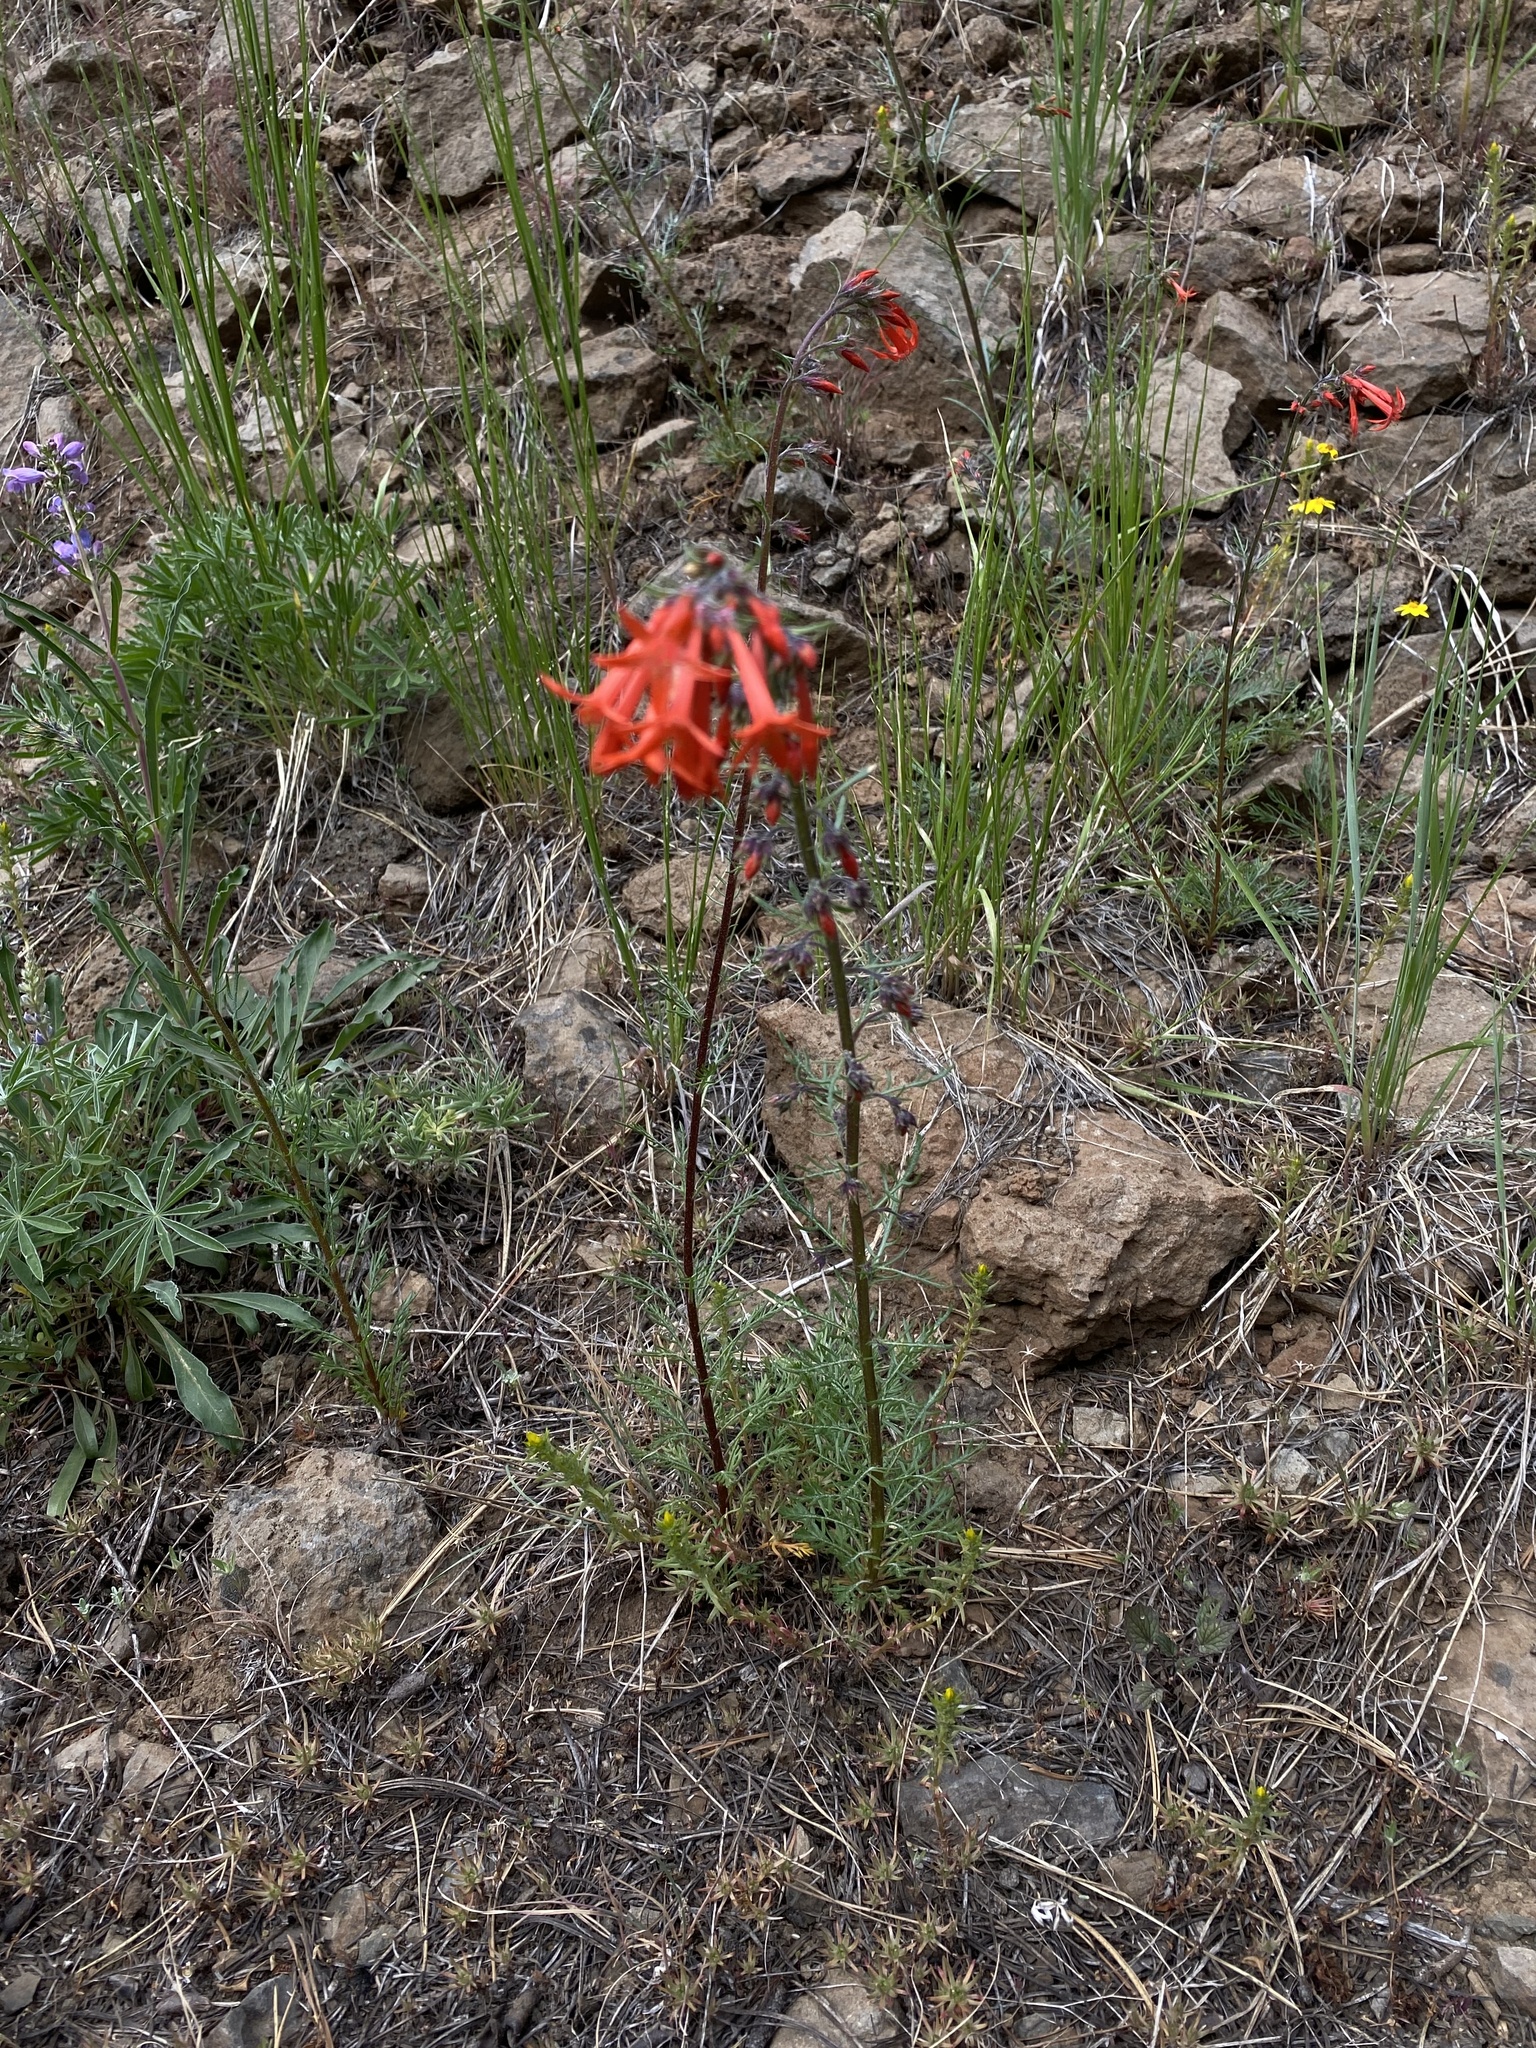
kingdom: Plantae
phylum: Tracheophyta
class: Magnoliopsida
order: Ericales
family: Polemoniaceae
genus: Ipomopsis
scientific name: Ipomopsis aggregata
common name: Scarlet gilia
